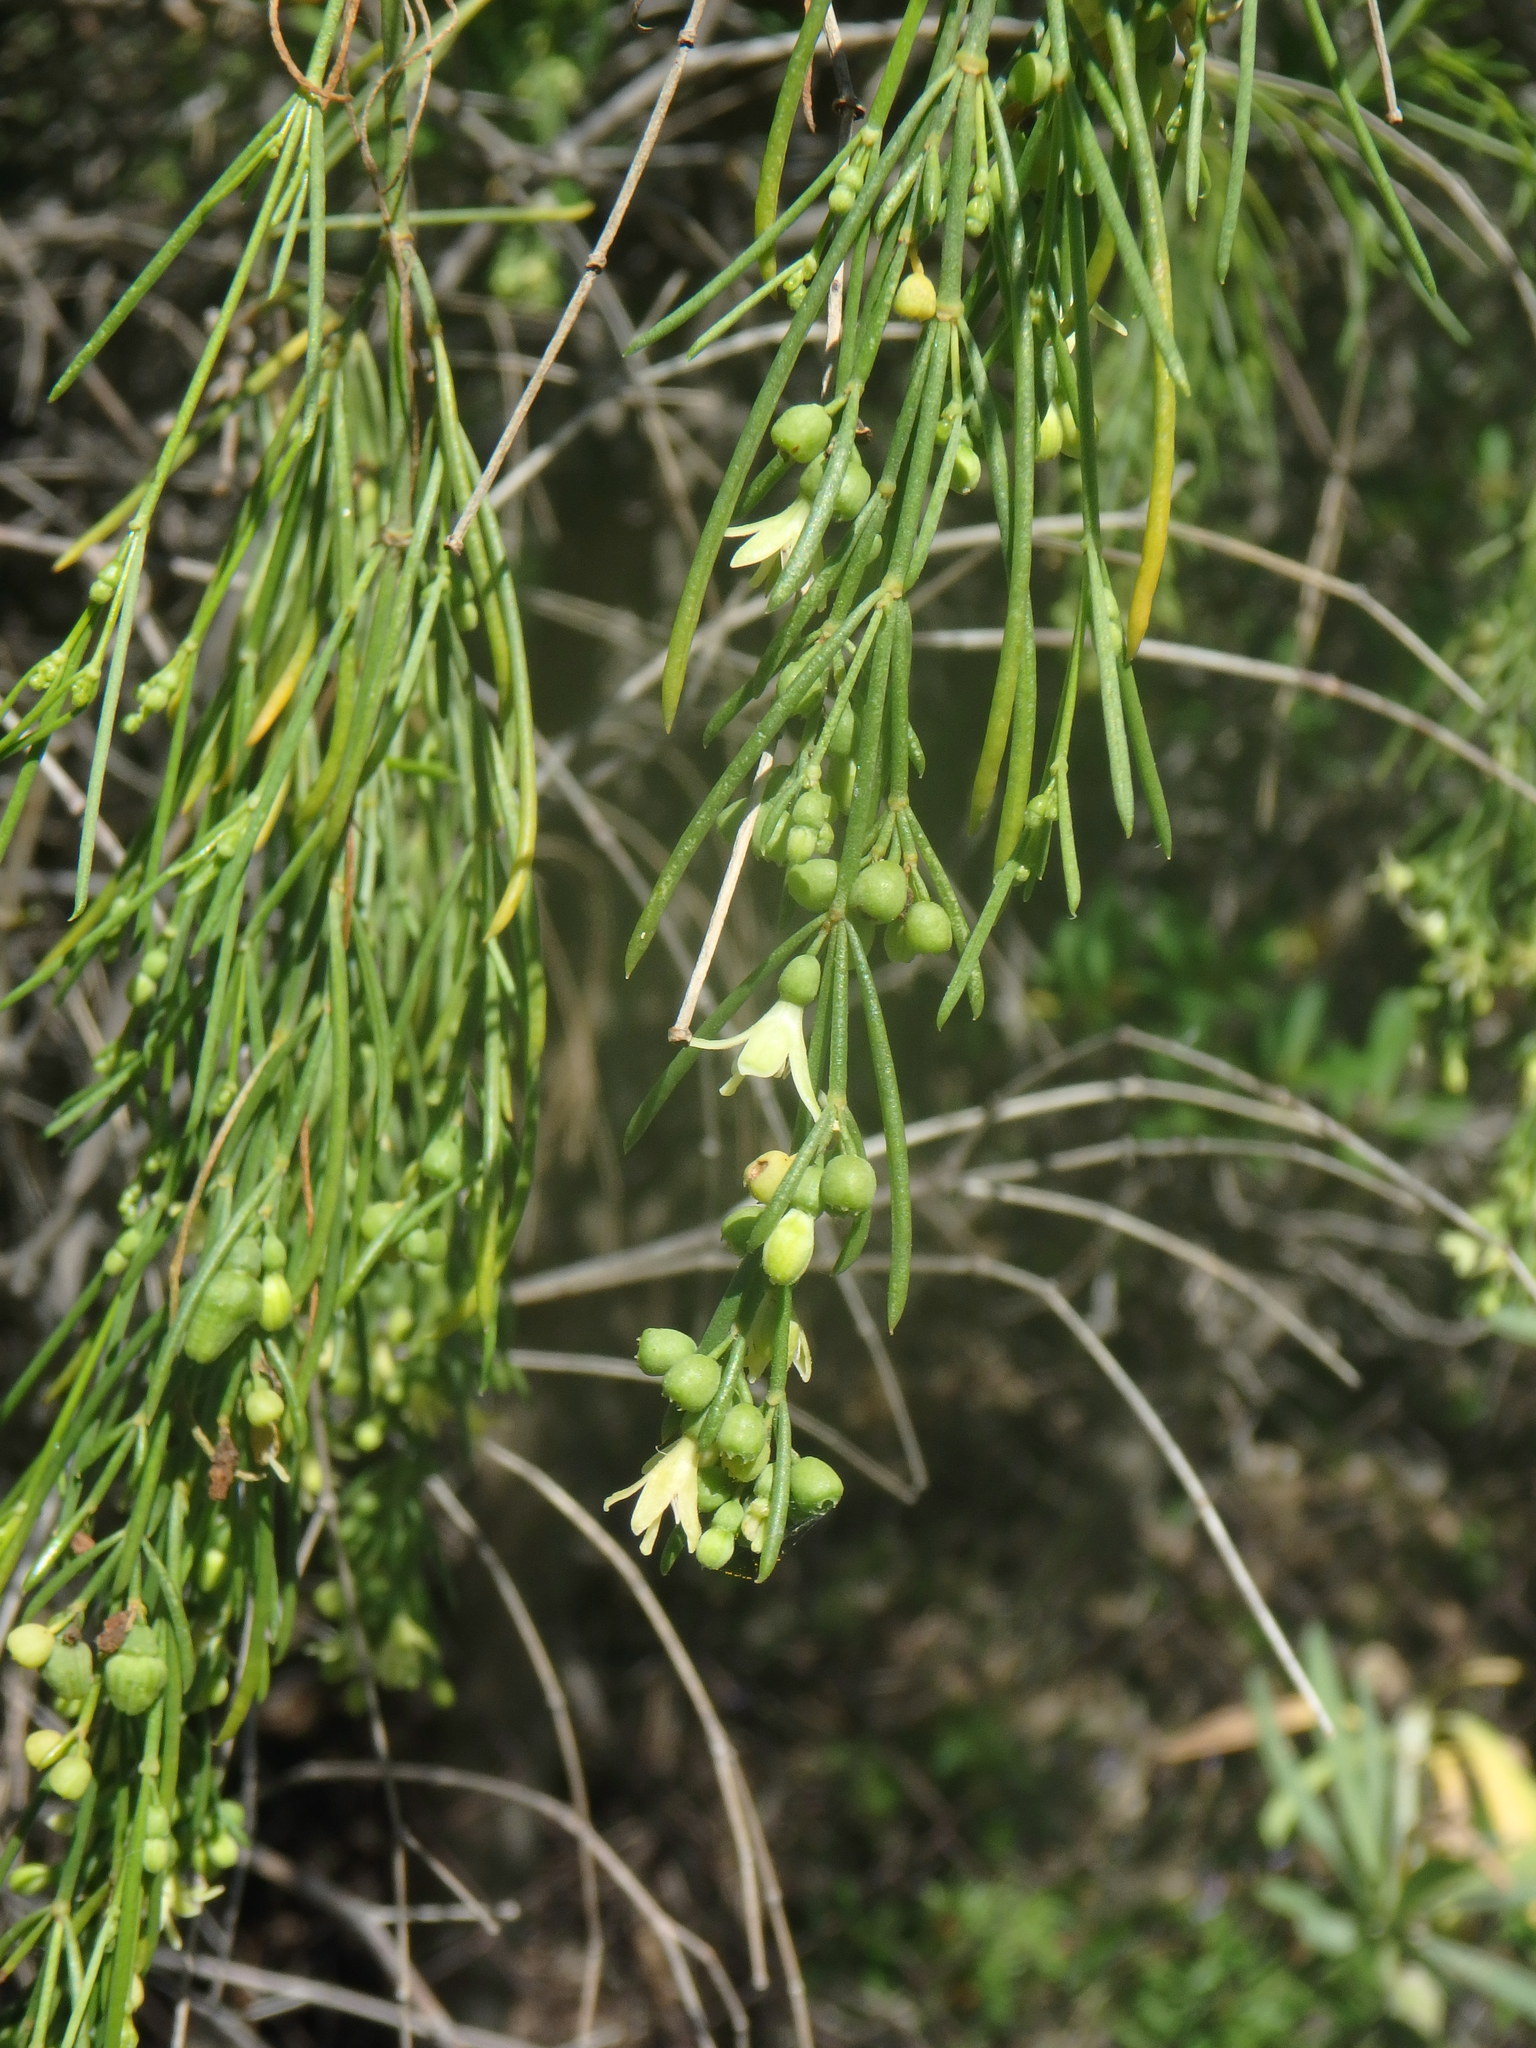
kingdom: Plantae
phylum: Tracheophyta
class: Magnoliopsida
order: Gentianales
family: Rubiaceae
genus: Plocama
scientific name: Plocama pendula
